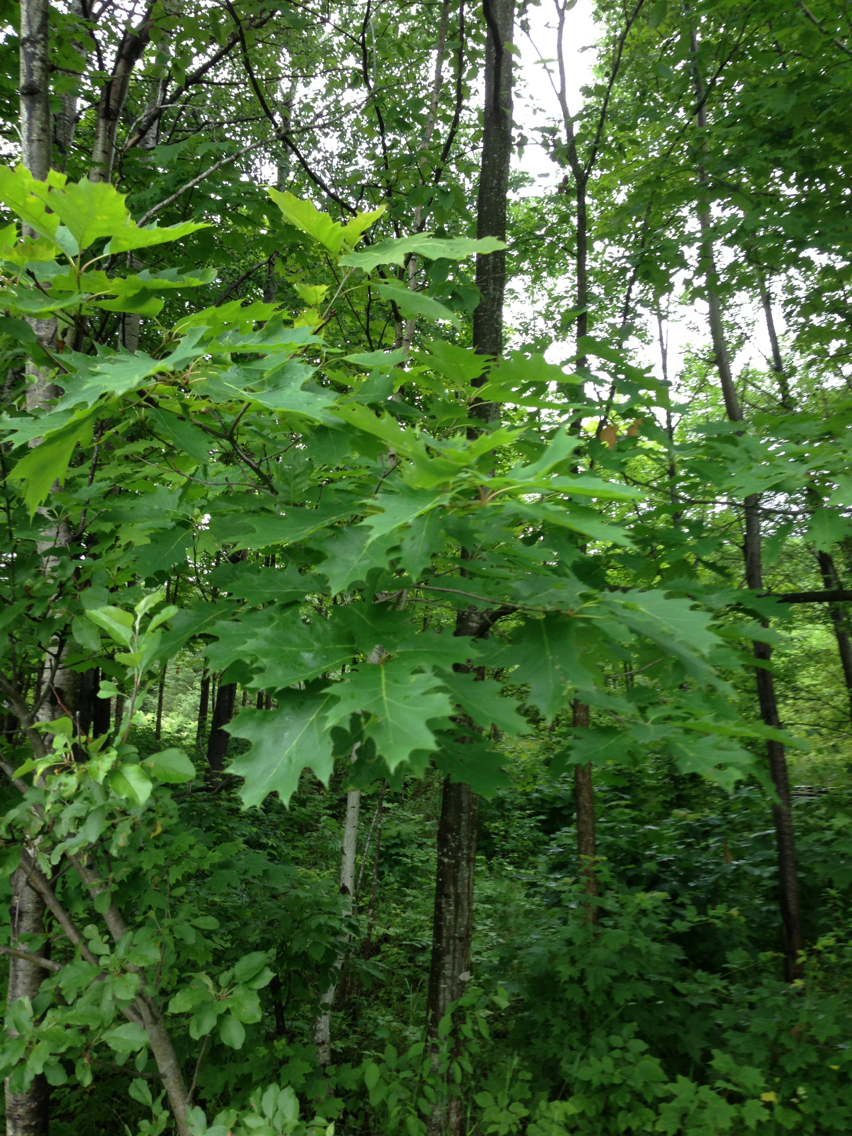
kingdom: Plantae
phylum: Tracheophyta
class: Magnoliopsida
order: Fagales
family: Fagaceae
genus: Quercus
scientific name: Quercus rubra
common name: Red oak
